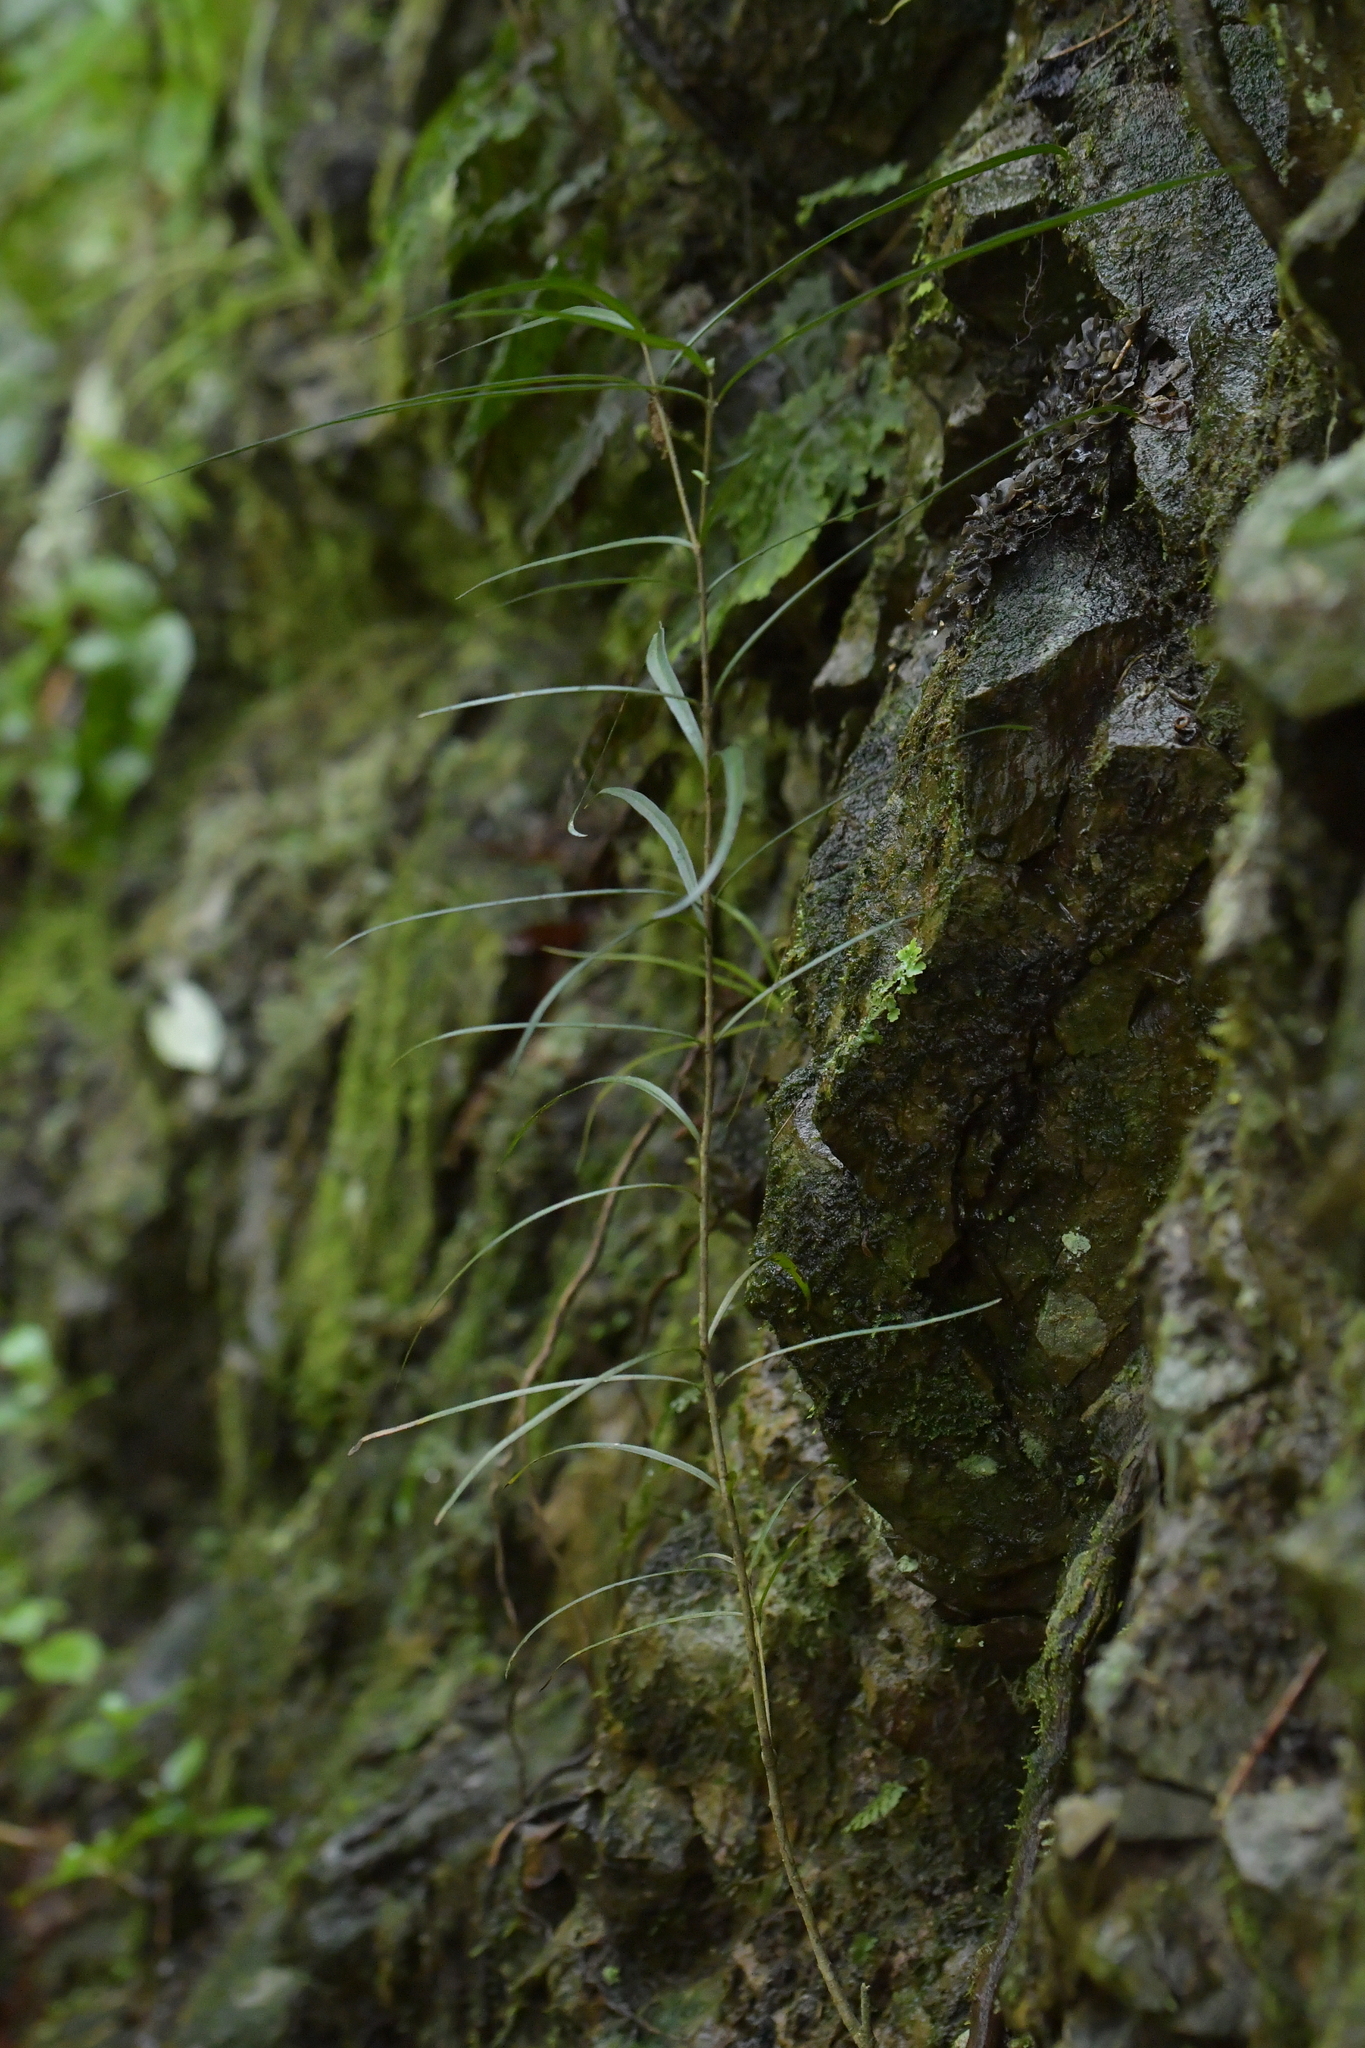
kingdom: Plantae
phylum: Tracheophyta
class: Magnoliopsida
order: Lamiales
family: Oleaceae
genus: Nestegis
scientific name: Nestegis lanceolata
